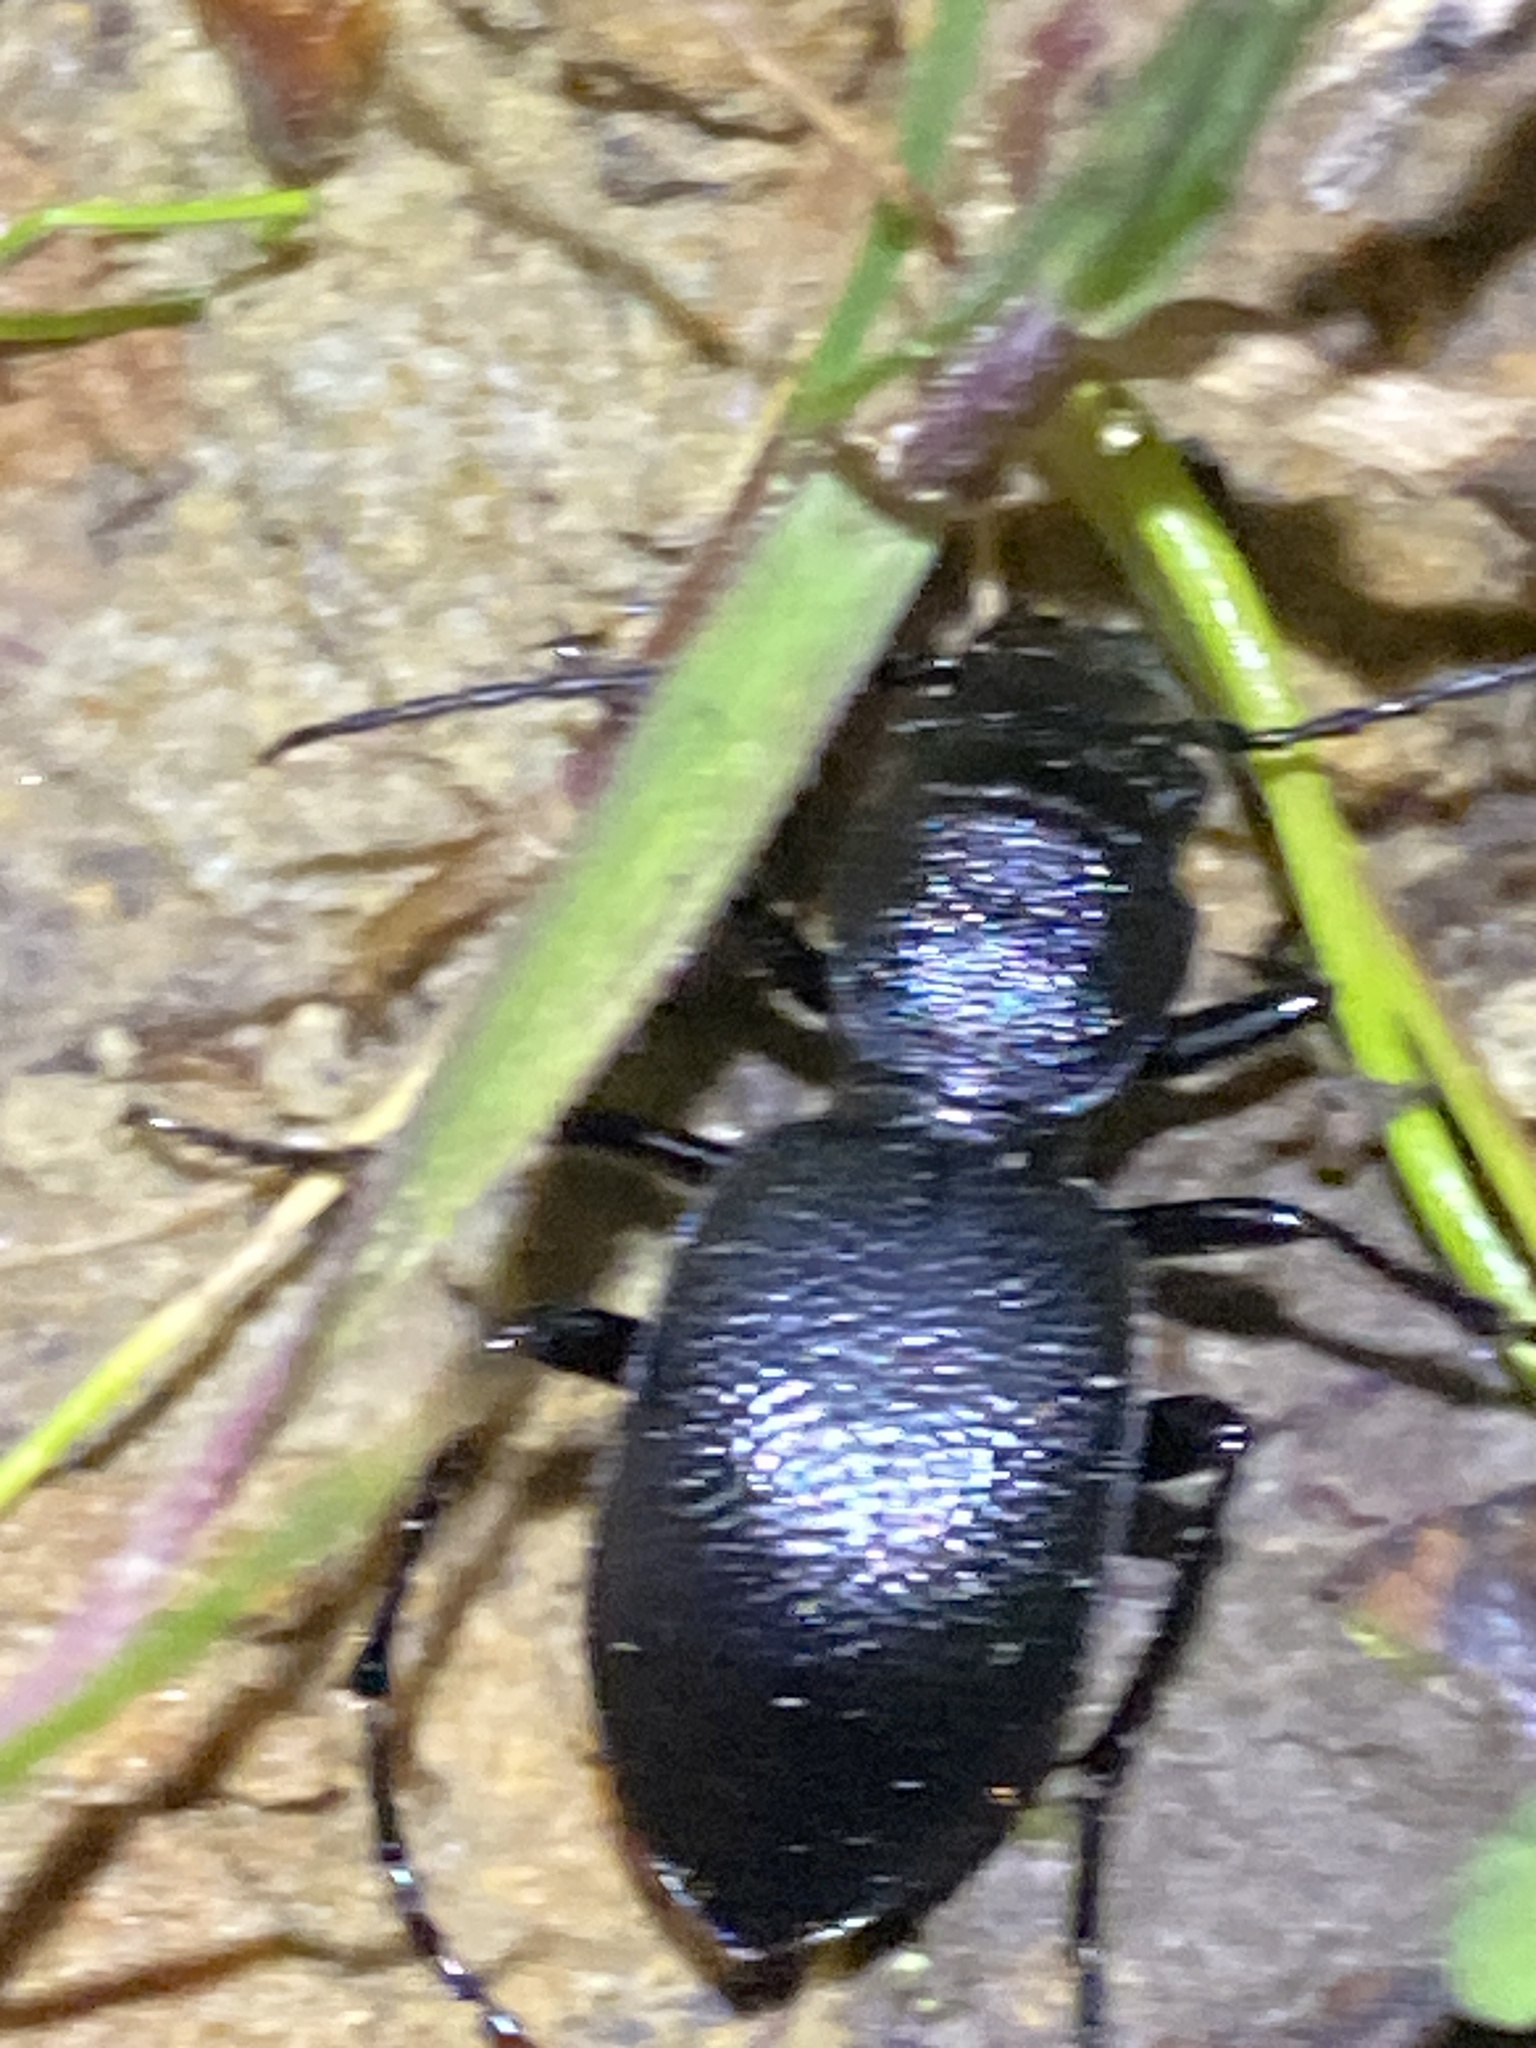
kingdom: Animalia
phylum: Arthropoda
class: Insecta
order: Coleoptera
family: Carabidae
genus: Omus
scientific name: Omus californicus
